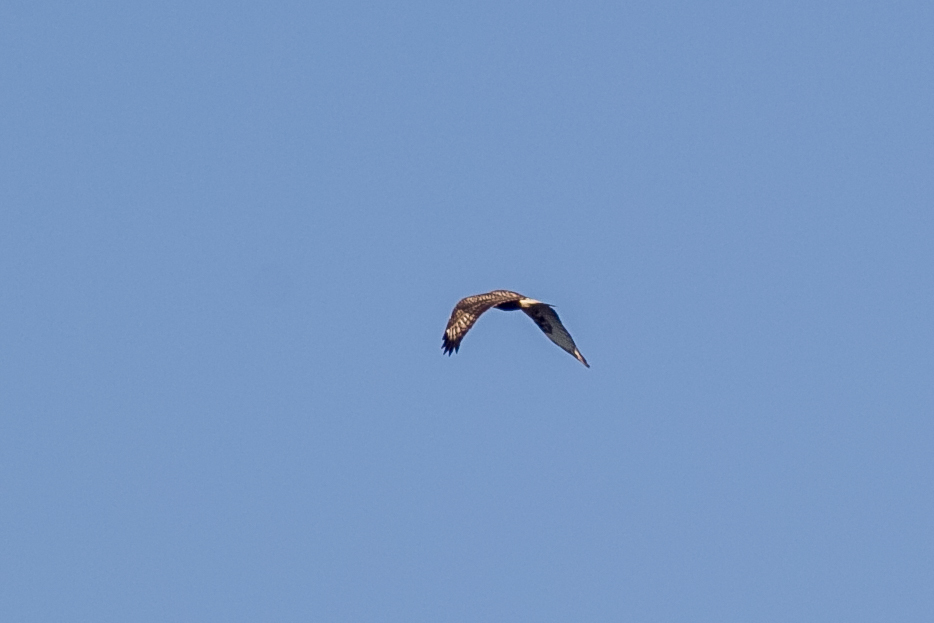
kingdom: Animalia
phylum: Chordata
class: Aves
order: Accipitriformes
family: Accipitridae
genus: Buteo
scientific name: Buteo lagopus
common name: Rough-legged buzzard
